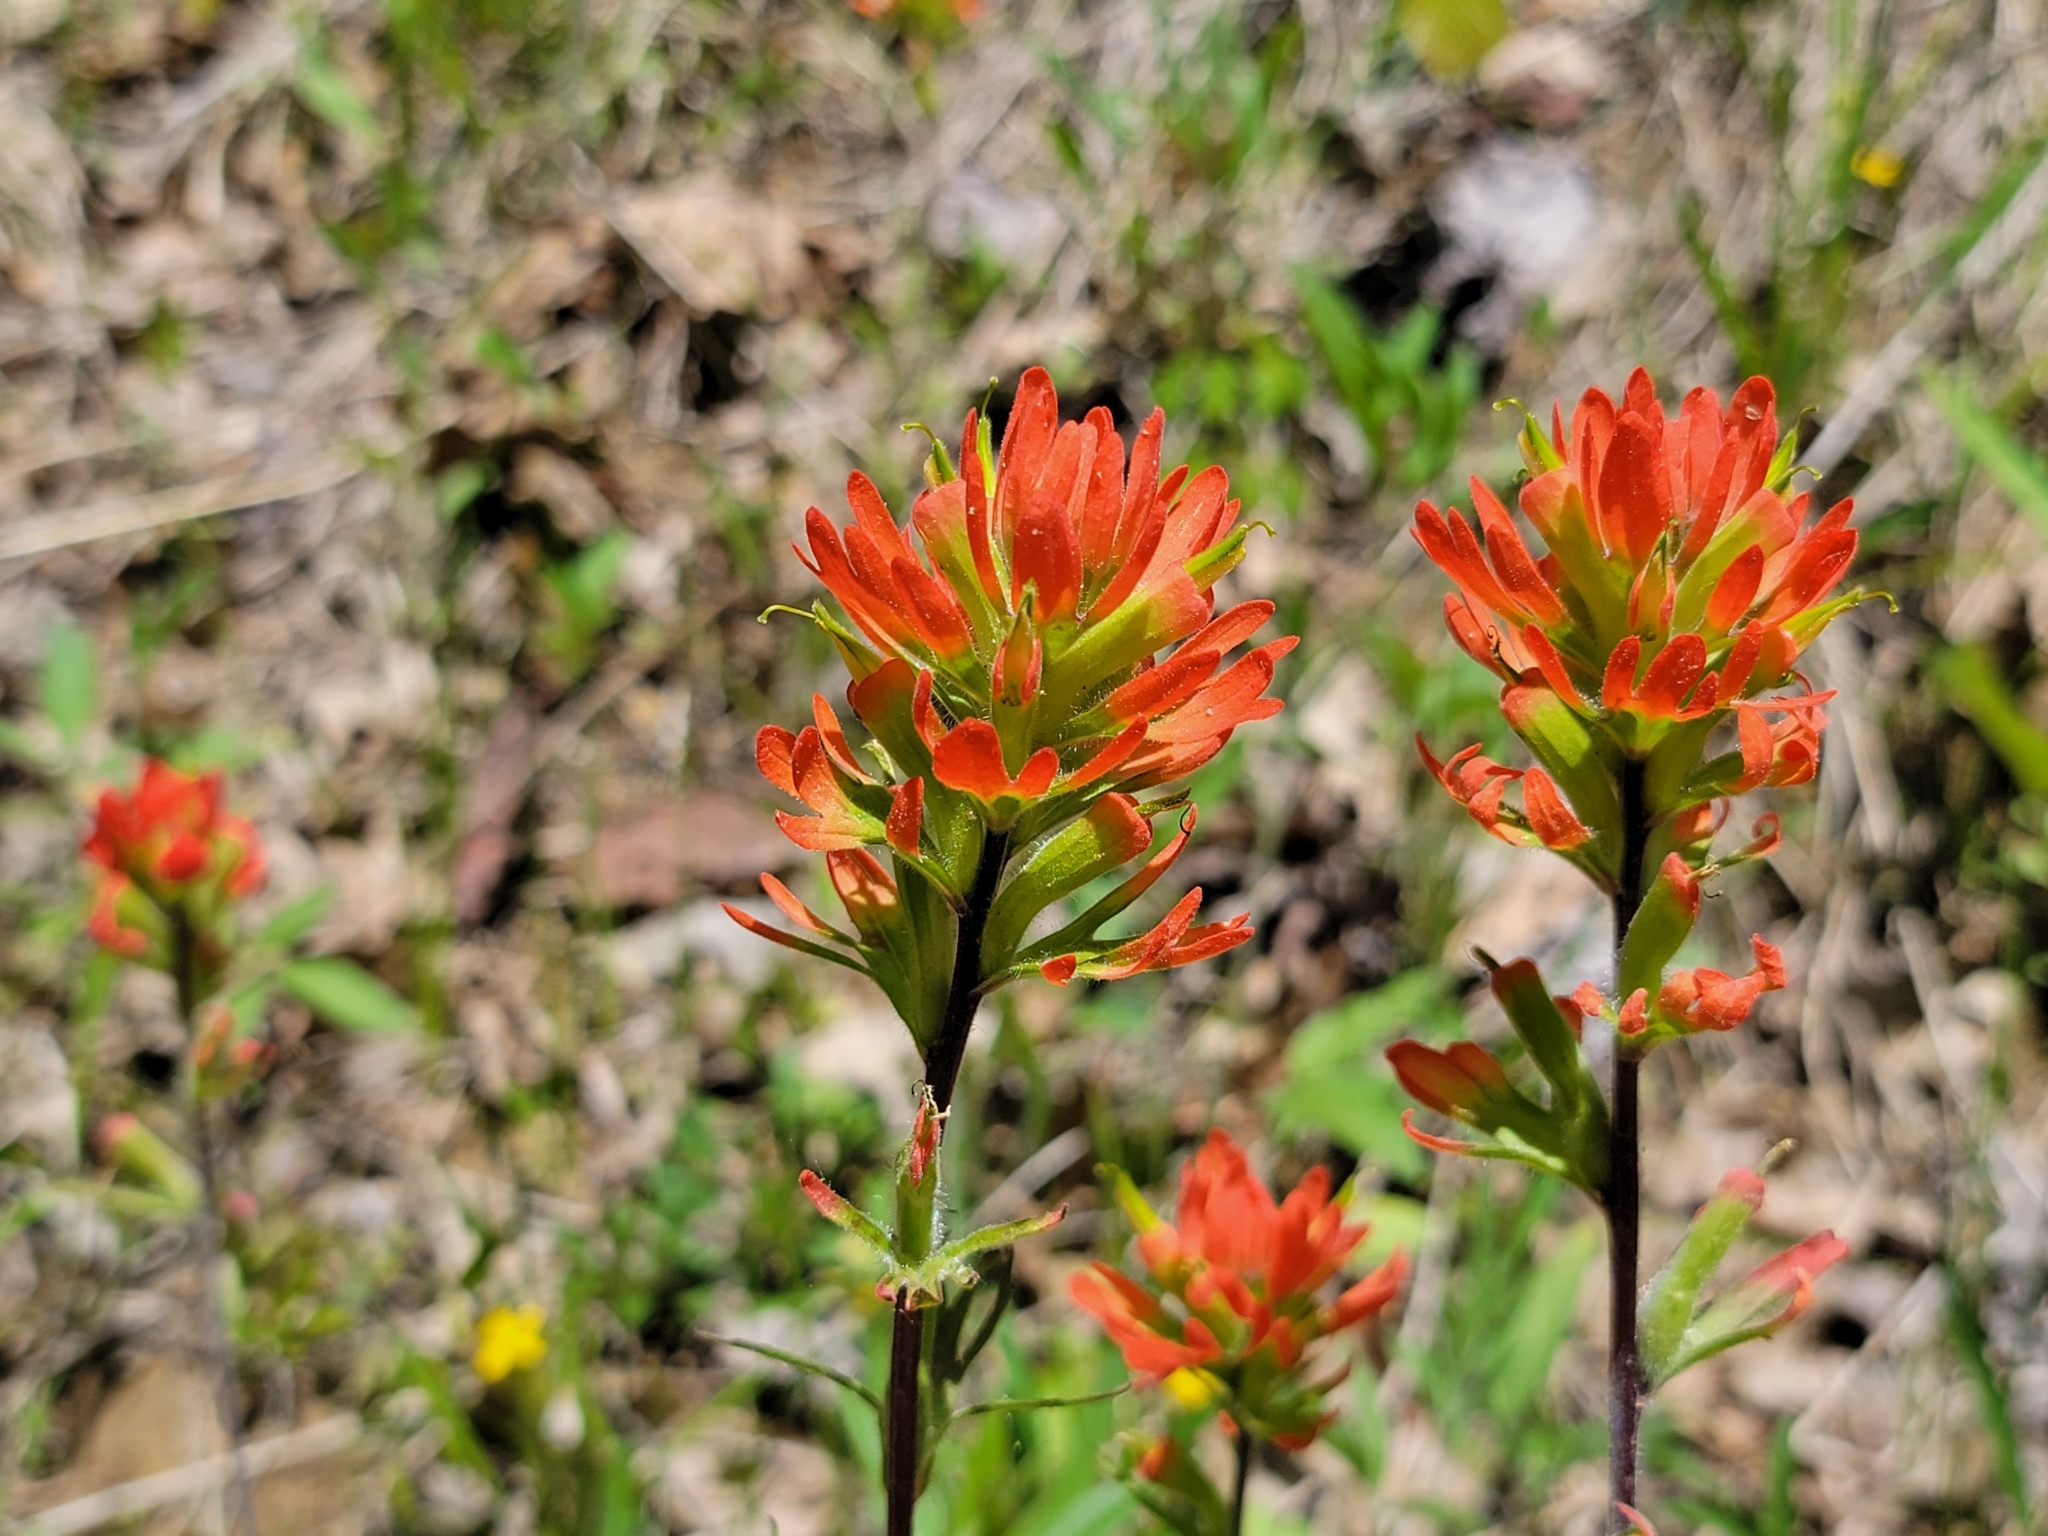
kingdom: Plantae
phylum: Tracheophyta
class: Magnoliopsida
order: Lamiales
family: Orobanchaceae
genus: Castilleja
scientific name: Castilleja coccinea
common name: Scarlet paintbrush
